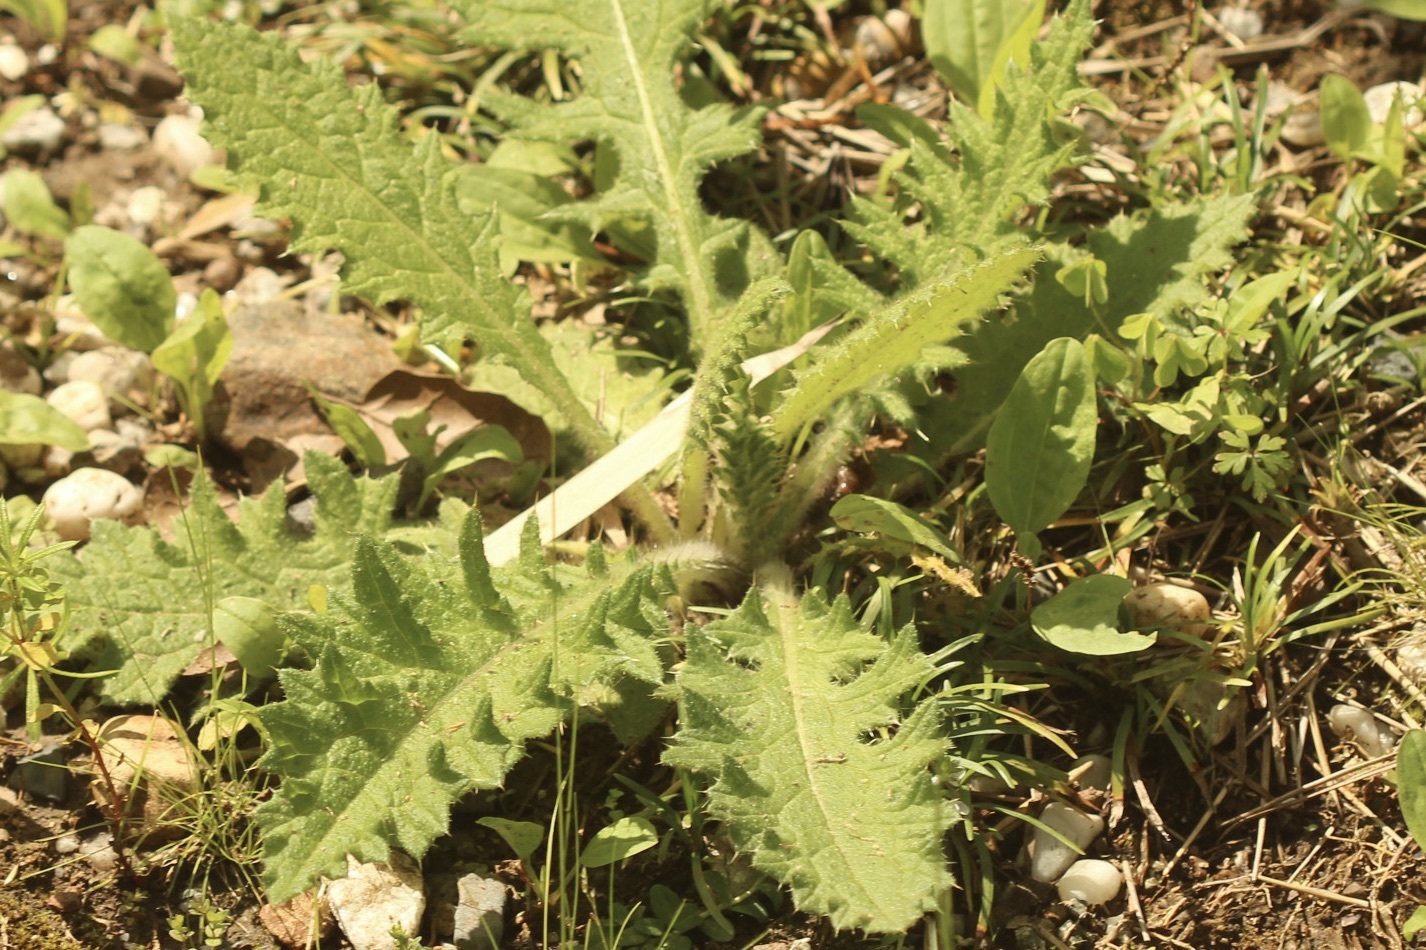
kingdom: Plantae
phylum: Tracheophyta
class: Magnoliopsida
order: Asterales
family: Asteraceae
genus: Cirsium
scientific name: Cirsium vulgare
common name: Bull thistle
